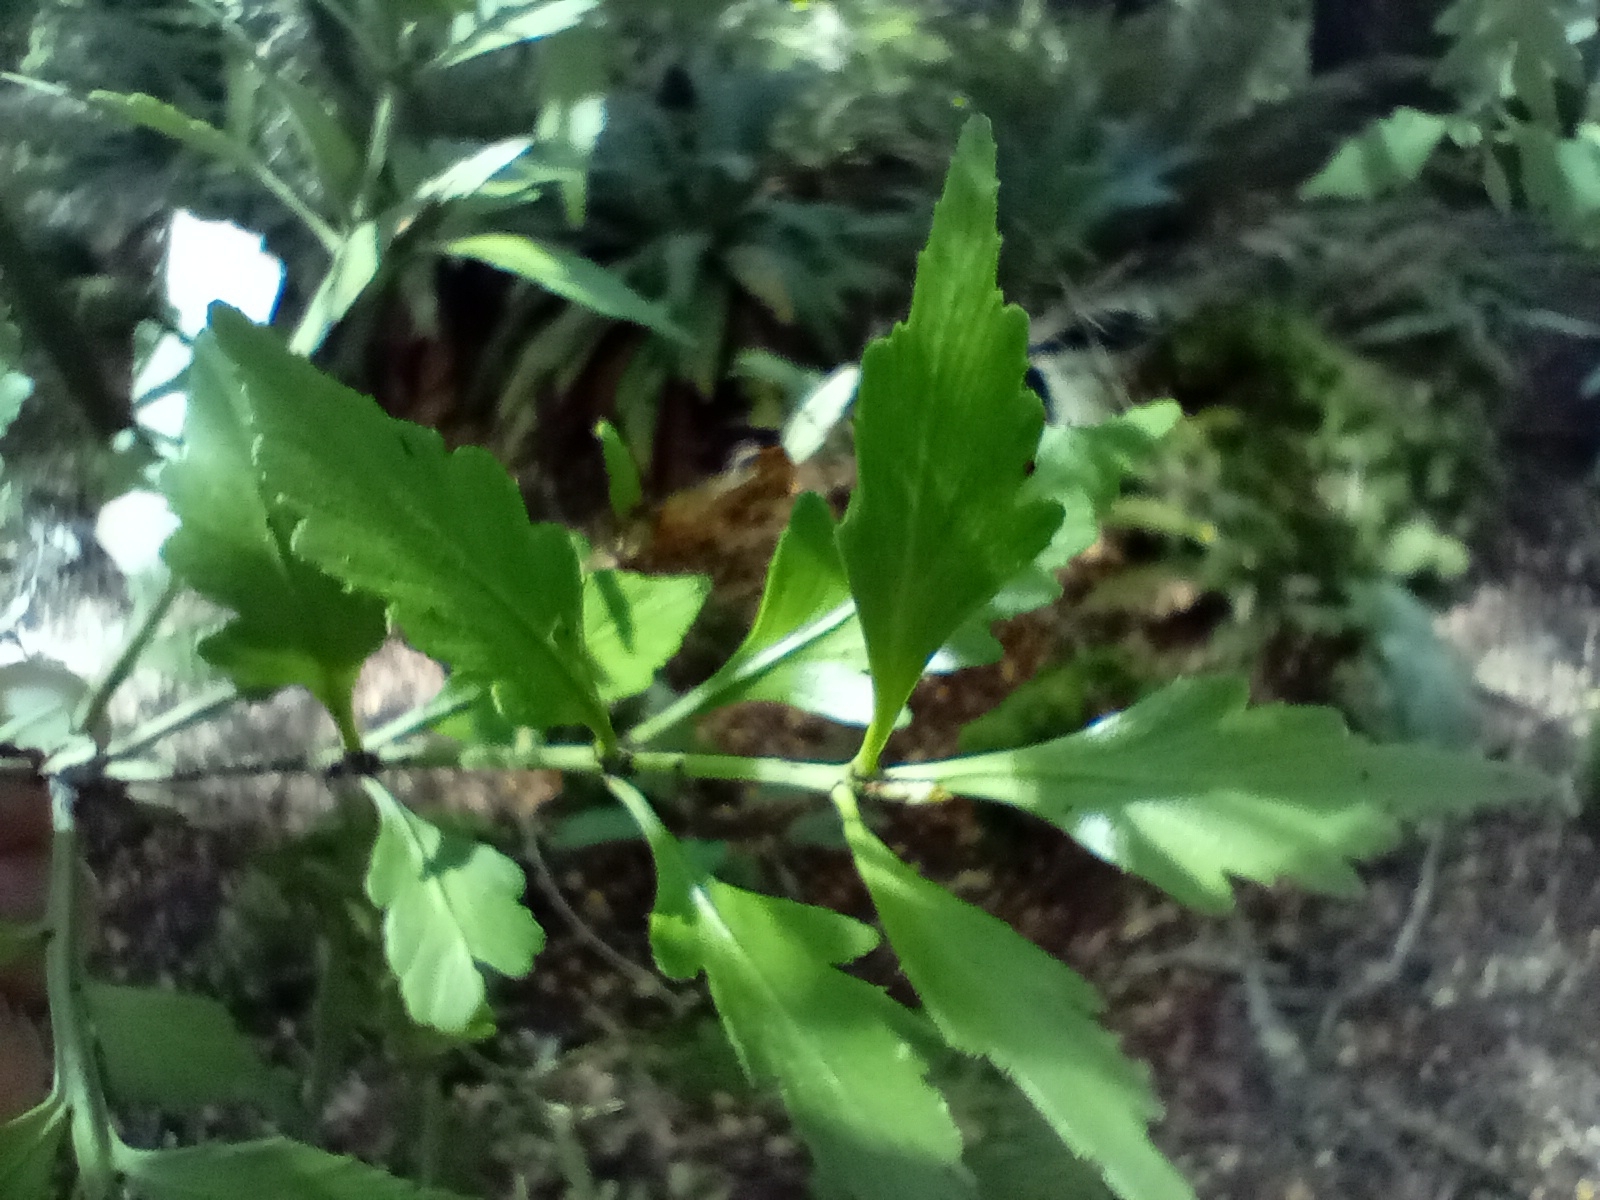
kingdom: Plantae
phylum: Tracheophyta
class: Pinopsida
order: Pinales
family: Phyllocladaceae
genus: Phyllocladus
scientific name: Phyllocladus trichomanoides
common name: Celery pine
